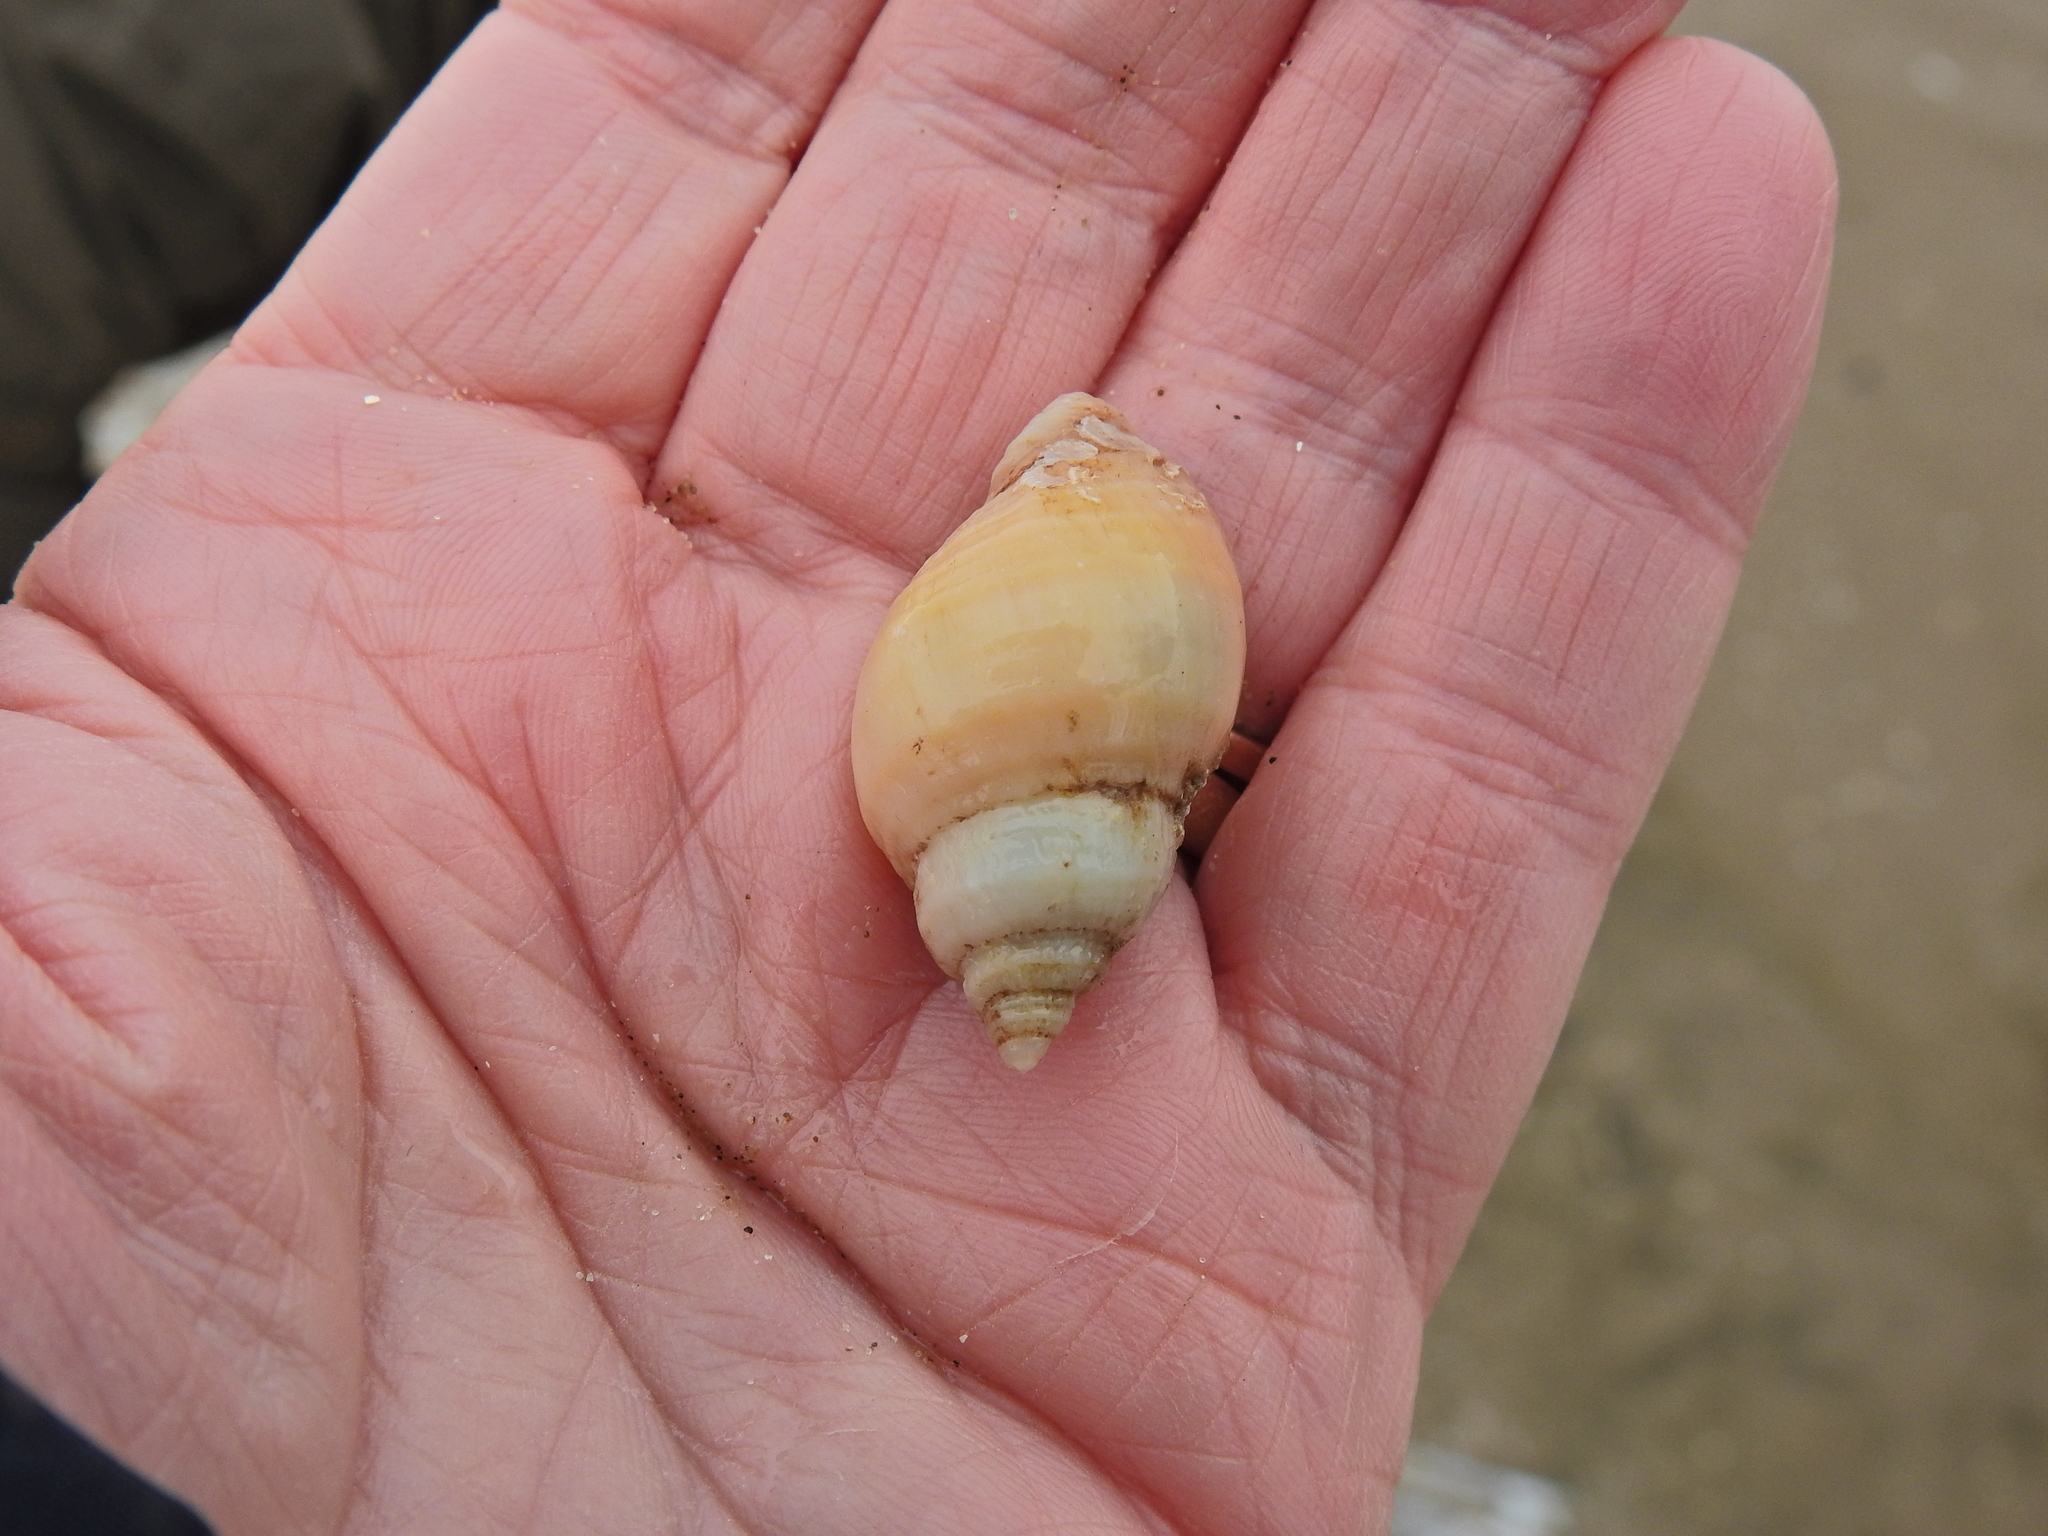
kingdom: Animalia
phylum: Mollusca
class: Gastropoda
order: Neogastropoda
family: Muricidae
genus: Nucella
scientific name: Nucella lapillus
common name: Dog whelk
